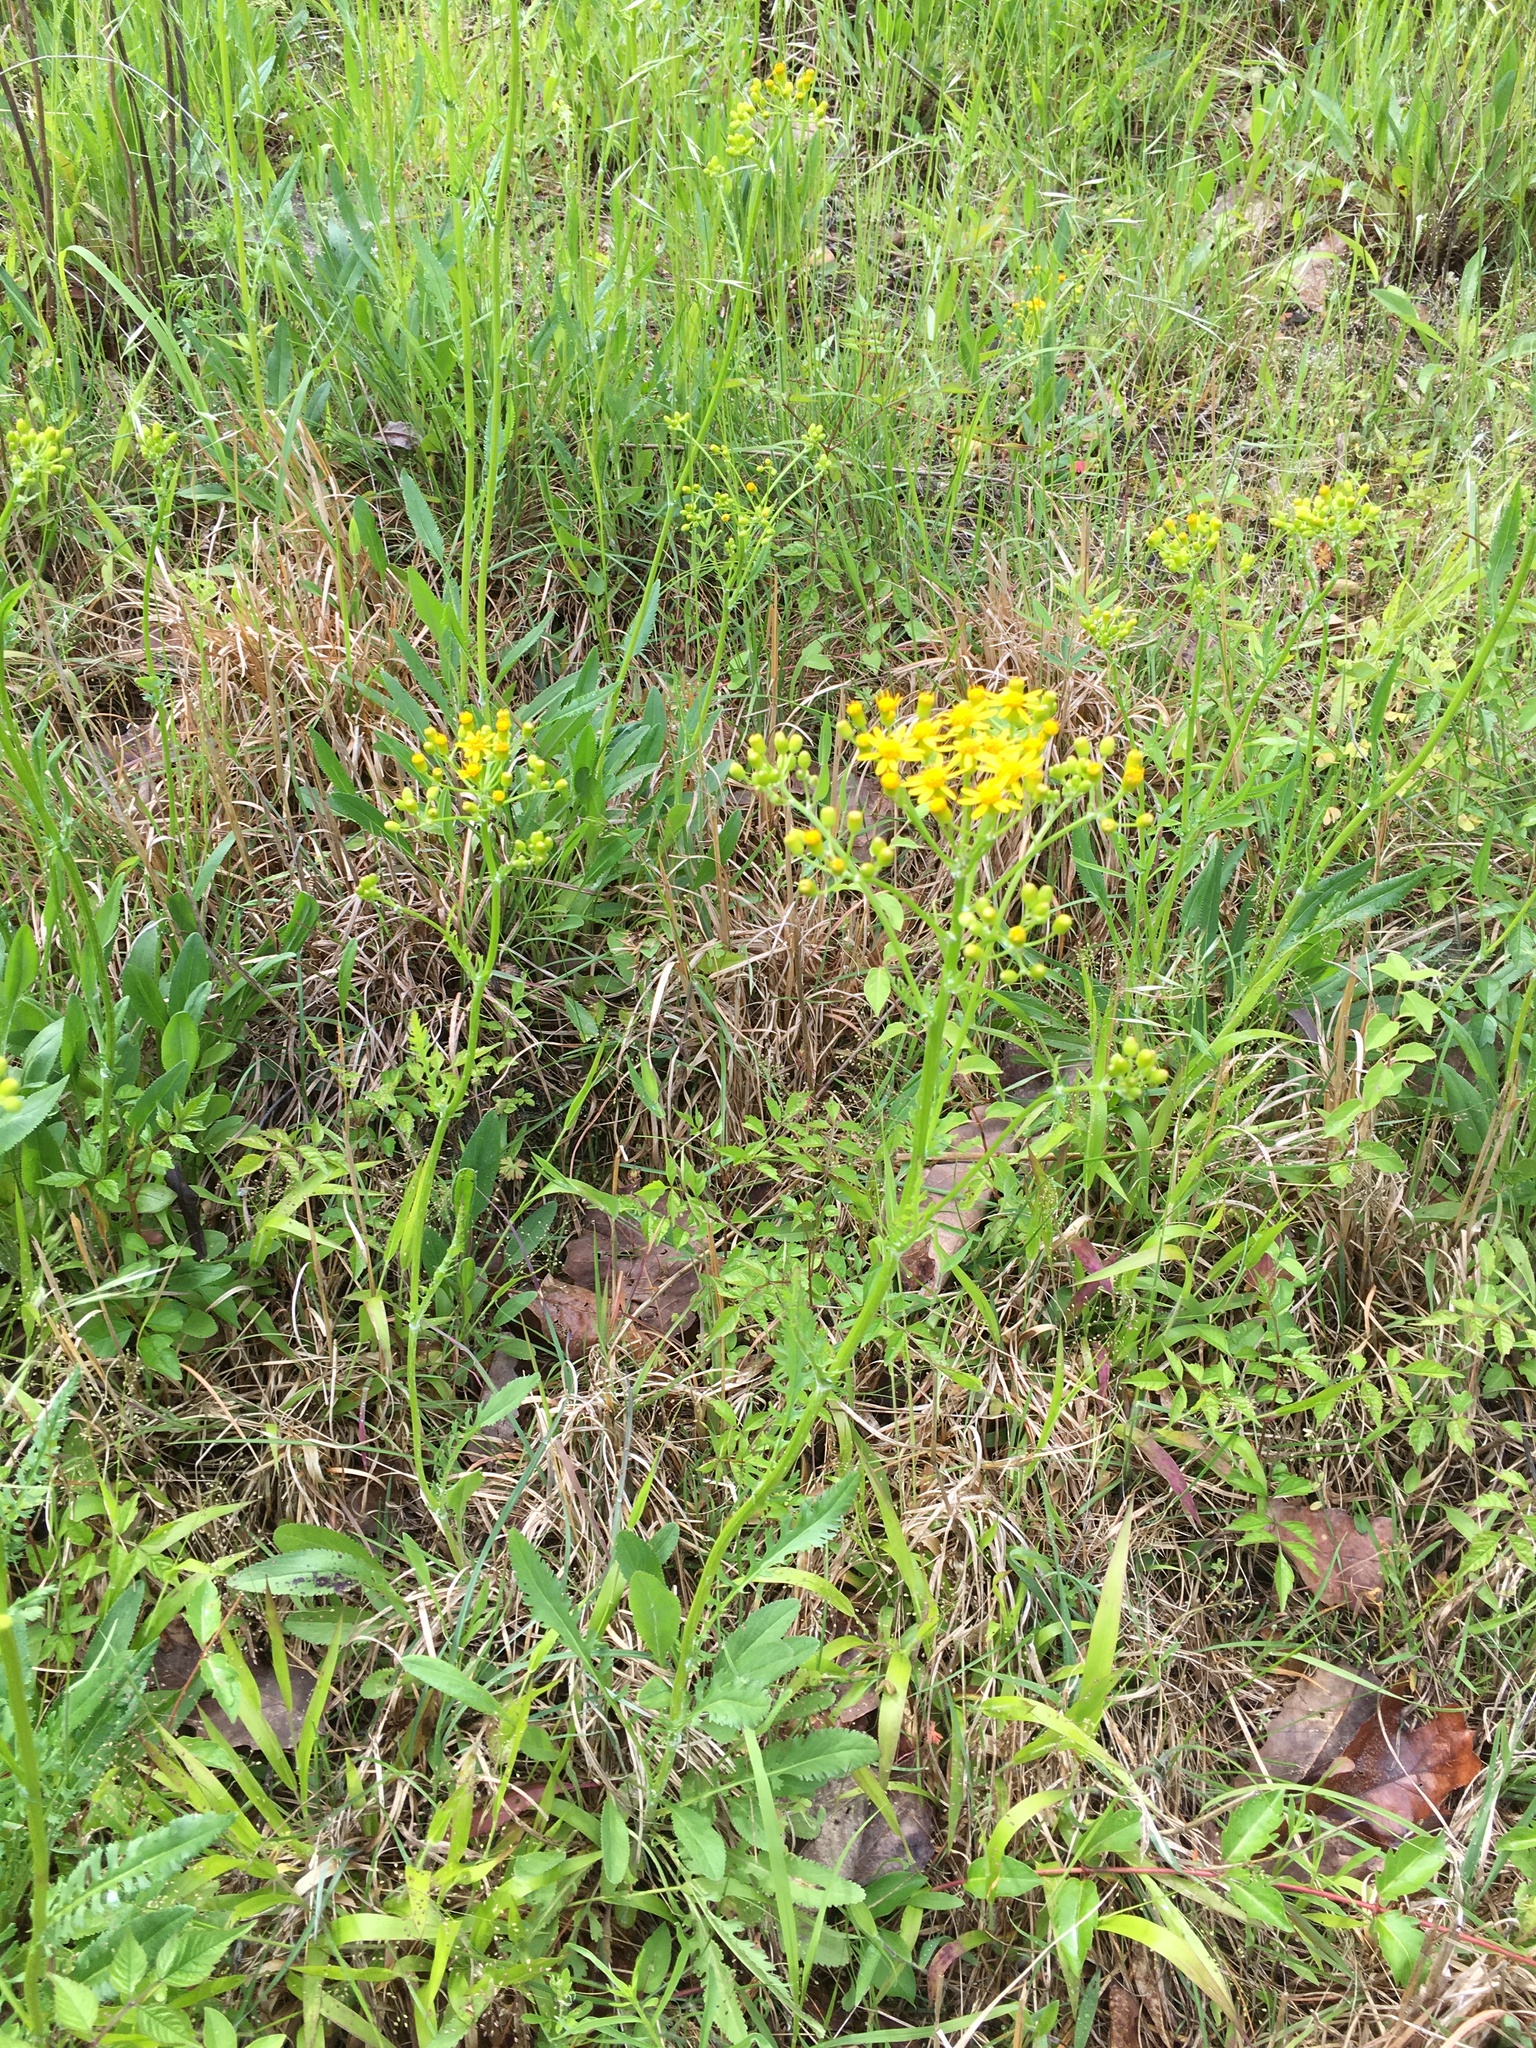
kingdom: Plantae
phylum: Tracheophyta
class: Magnoliopsida
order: Asterales
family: Asteraceae
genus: Packera
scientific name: Packera anonyma
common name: Small ragwort
